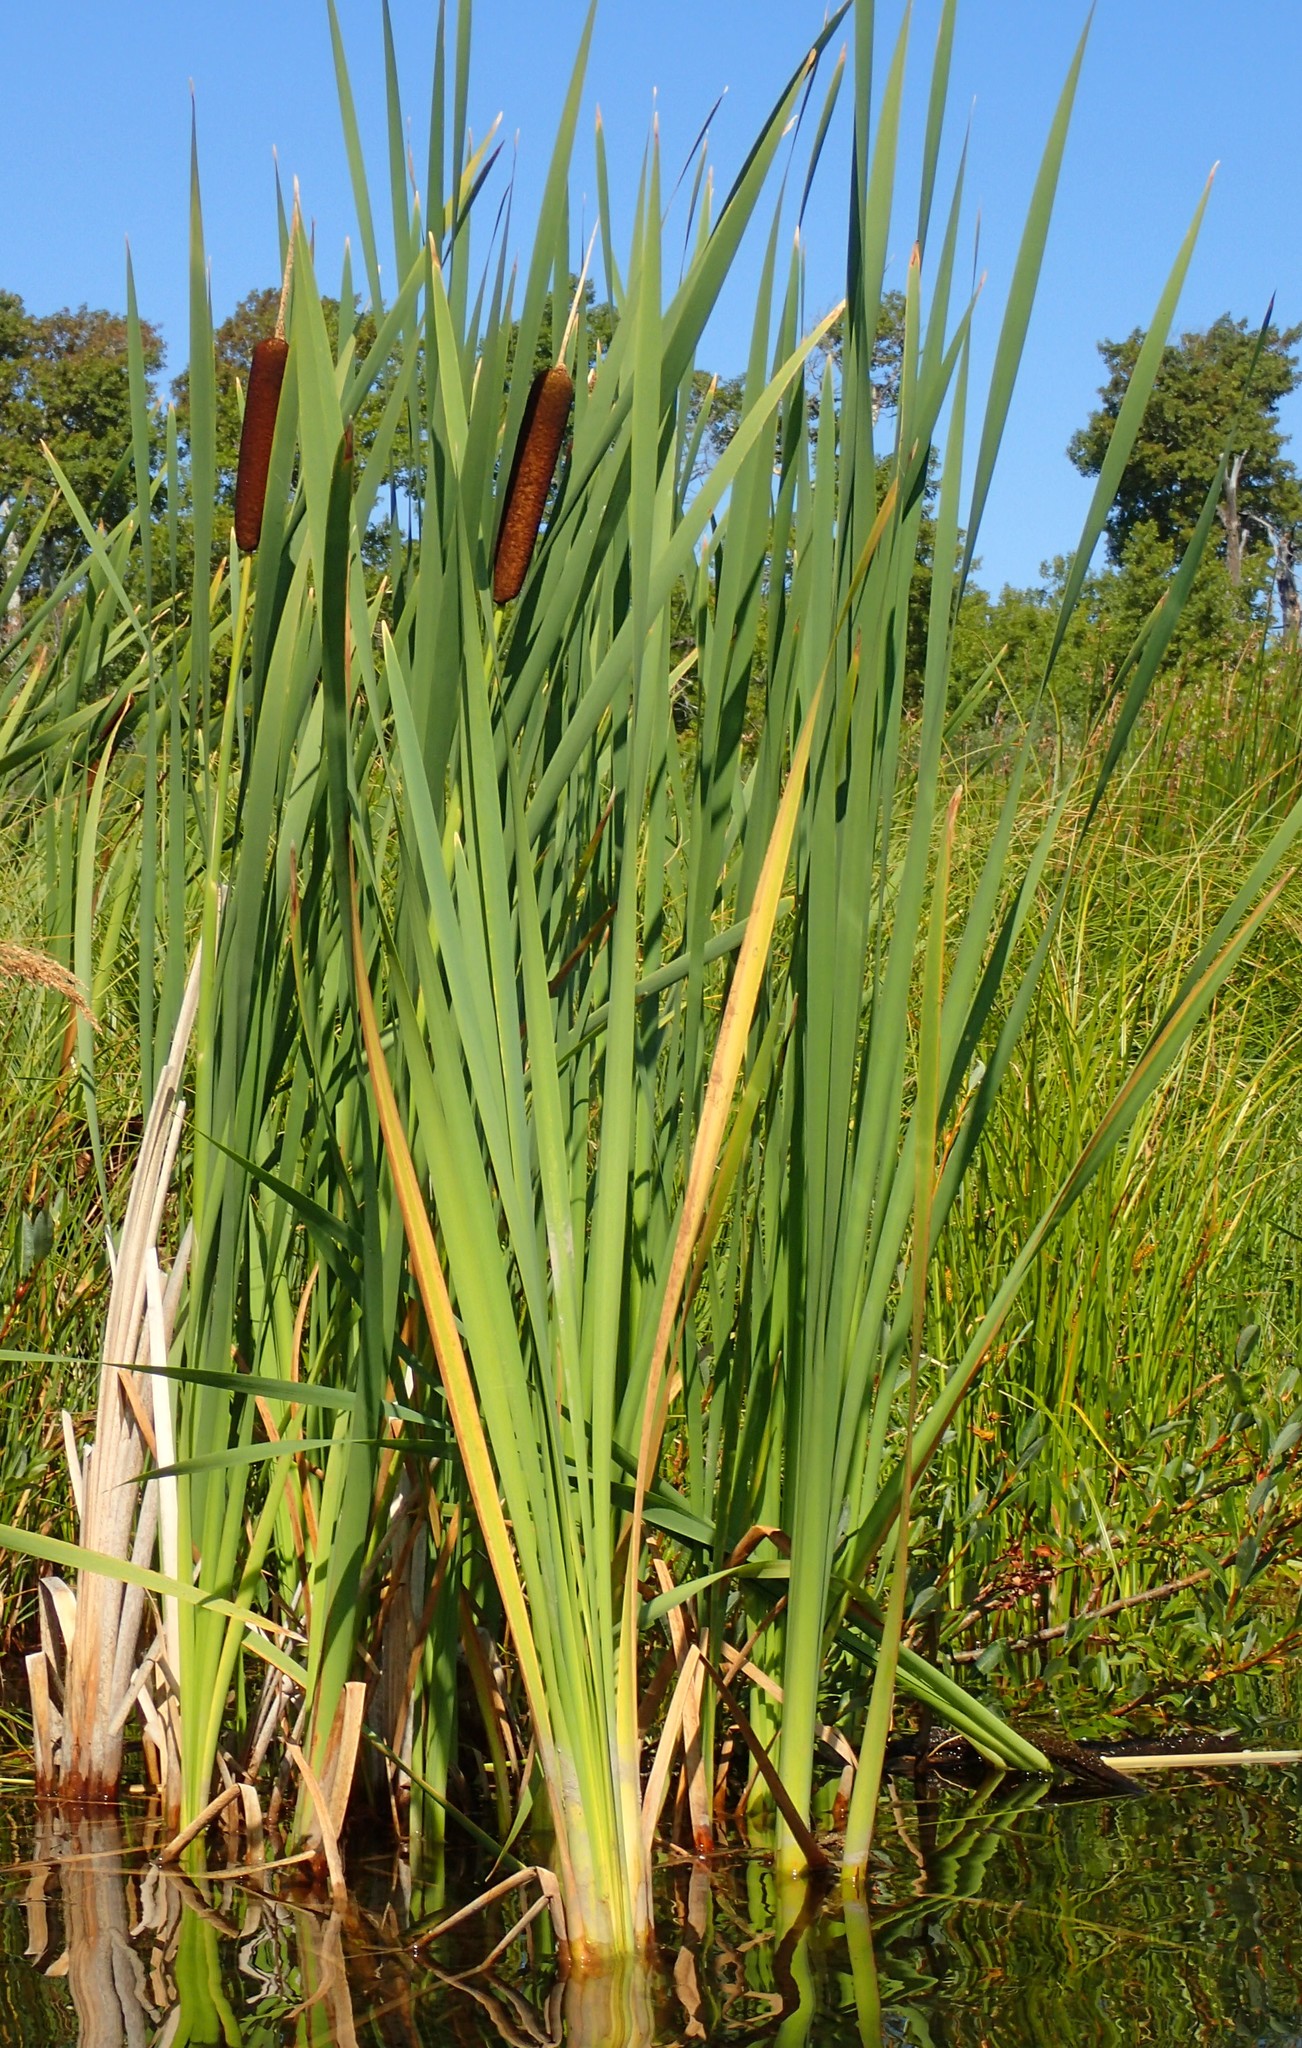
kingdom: Plantae
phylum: Tracheophyta
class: Liliopsida
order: Poales
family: Typhaceae
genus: Typha
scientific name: Typha latifolia
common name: Broadleaf cattail
